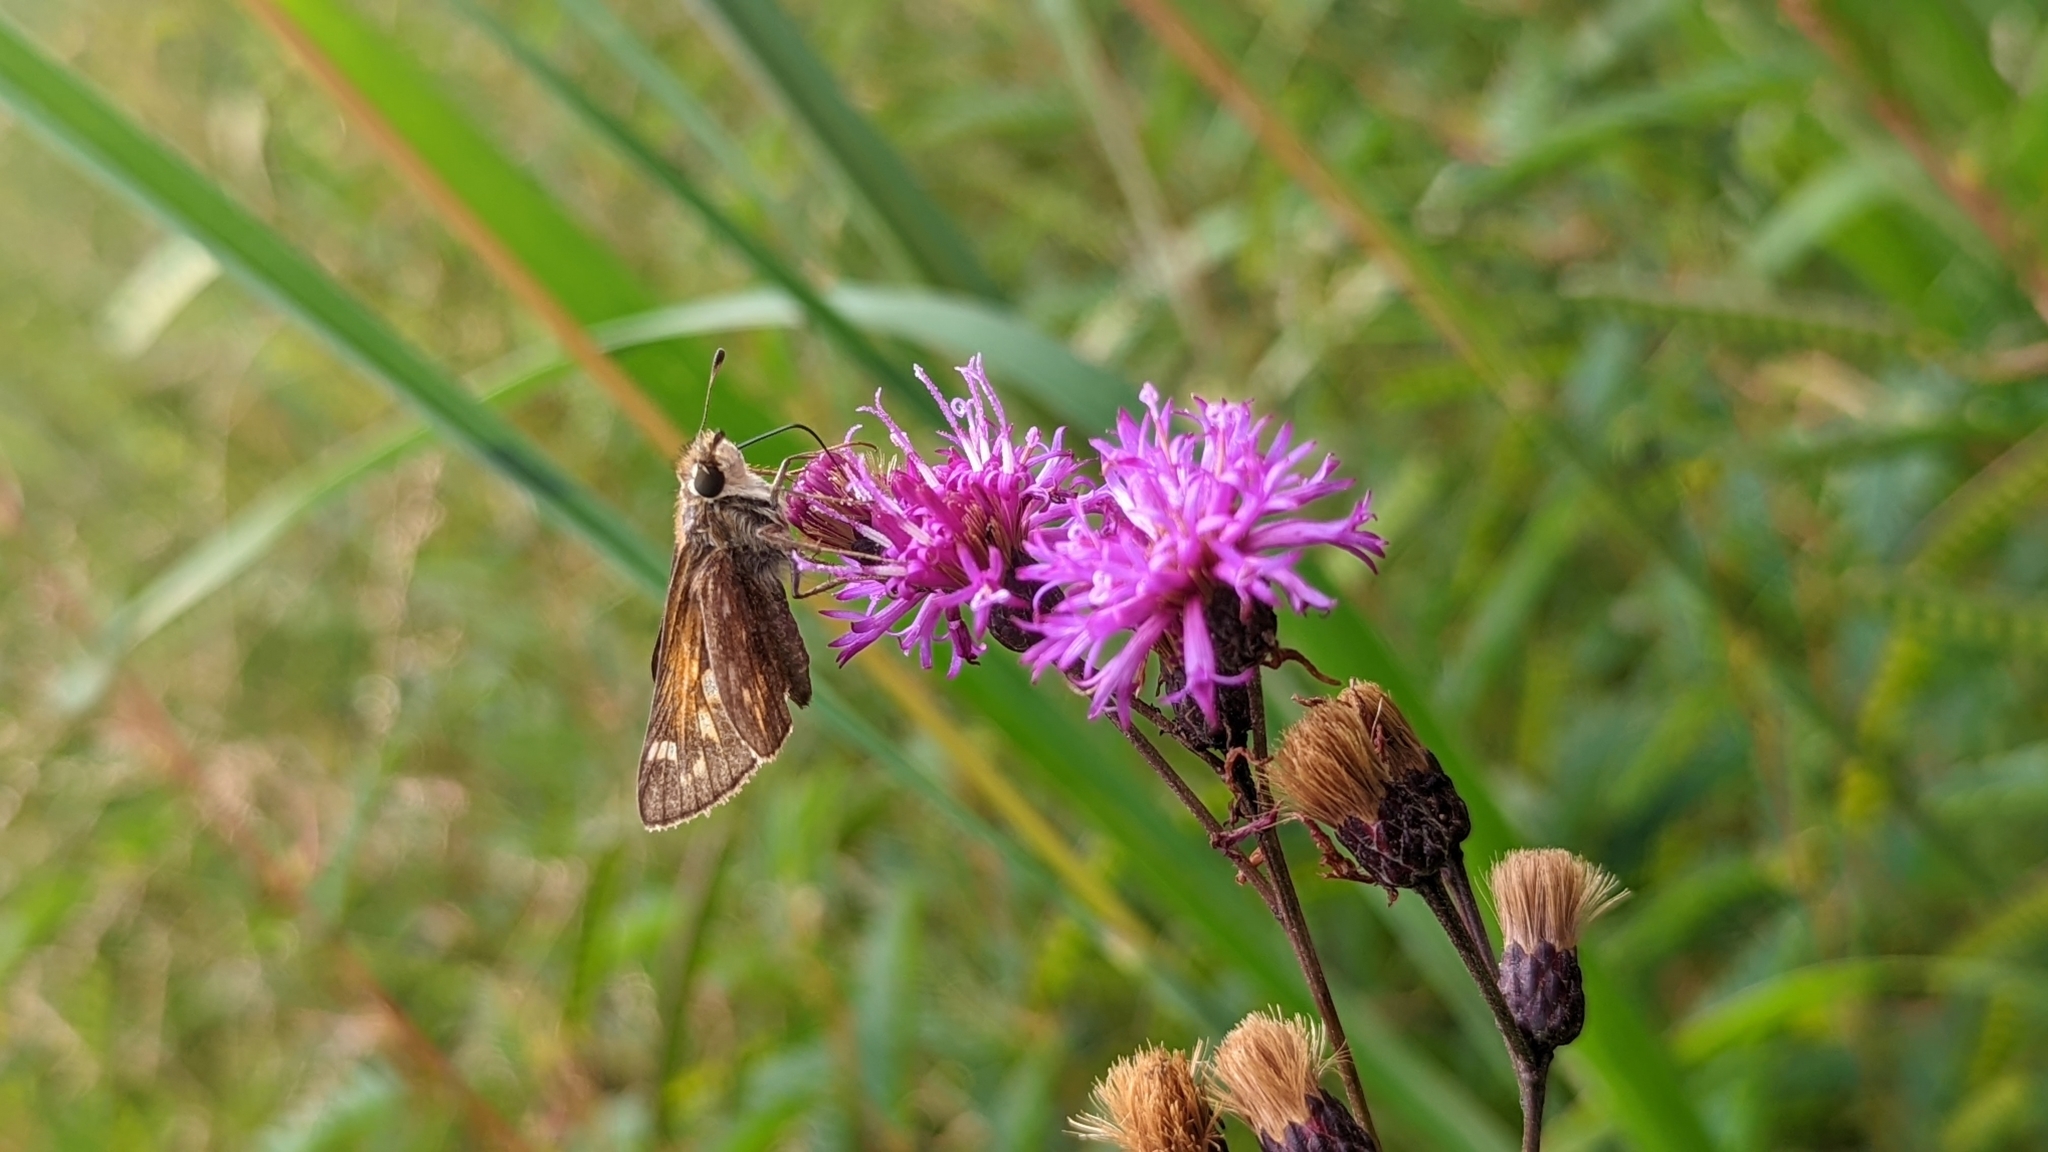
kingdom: Animalia
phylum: Arthropoda
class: Insecta
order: Lepidoptera
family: Hesperiidae
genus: Atalopedes
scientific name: Atalopedes
